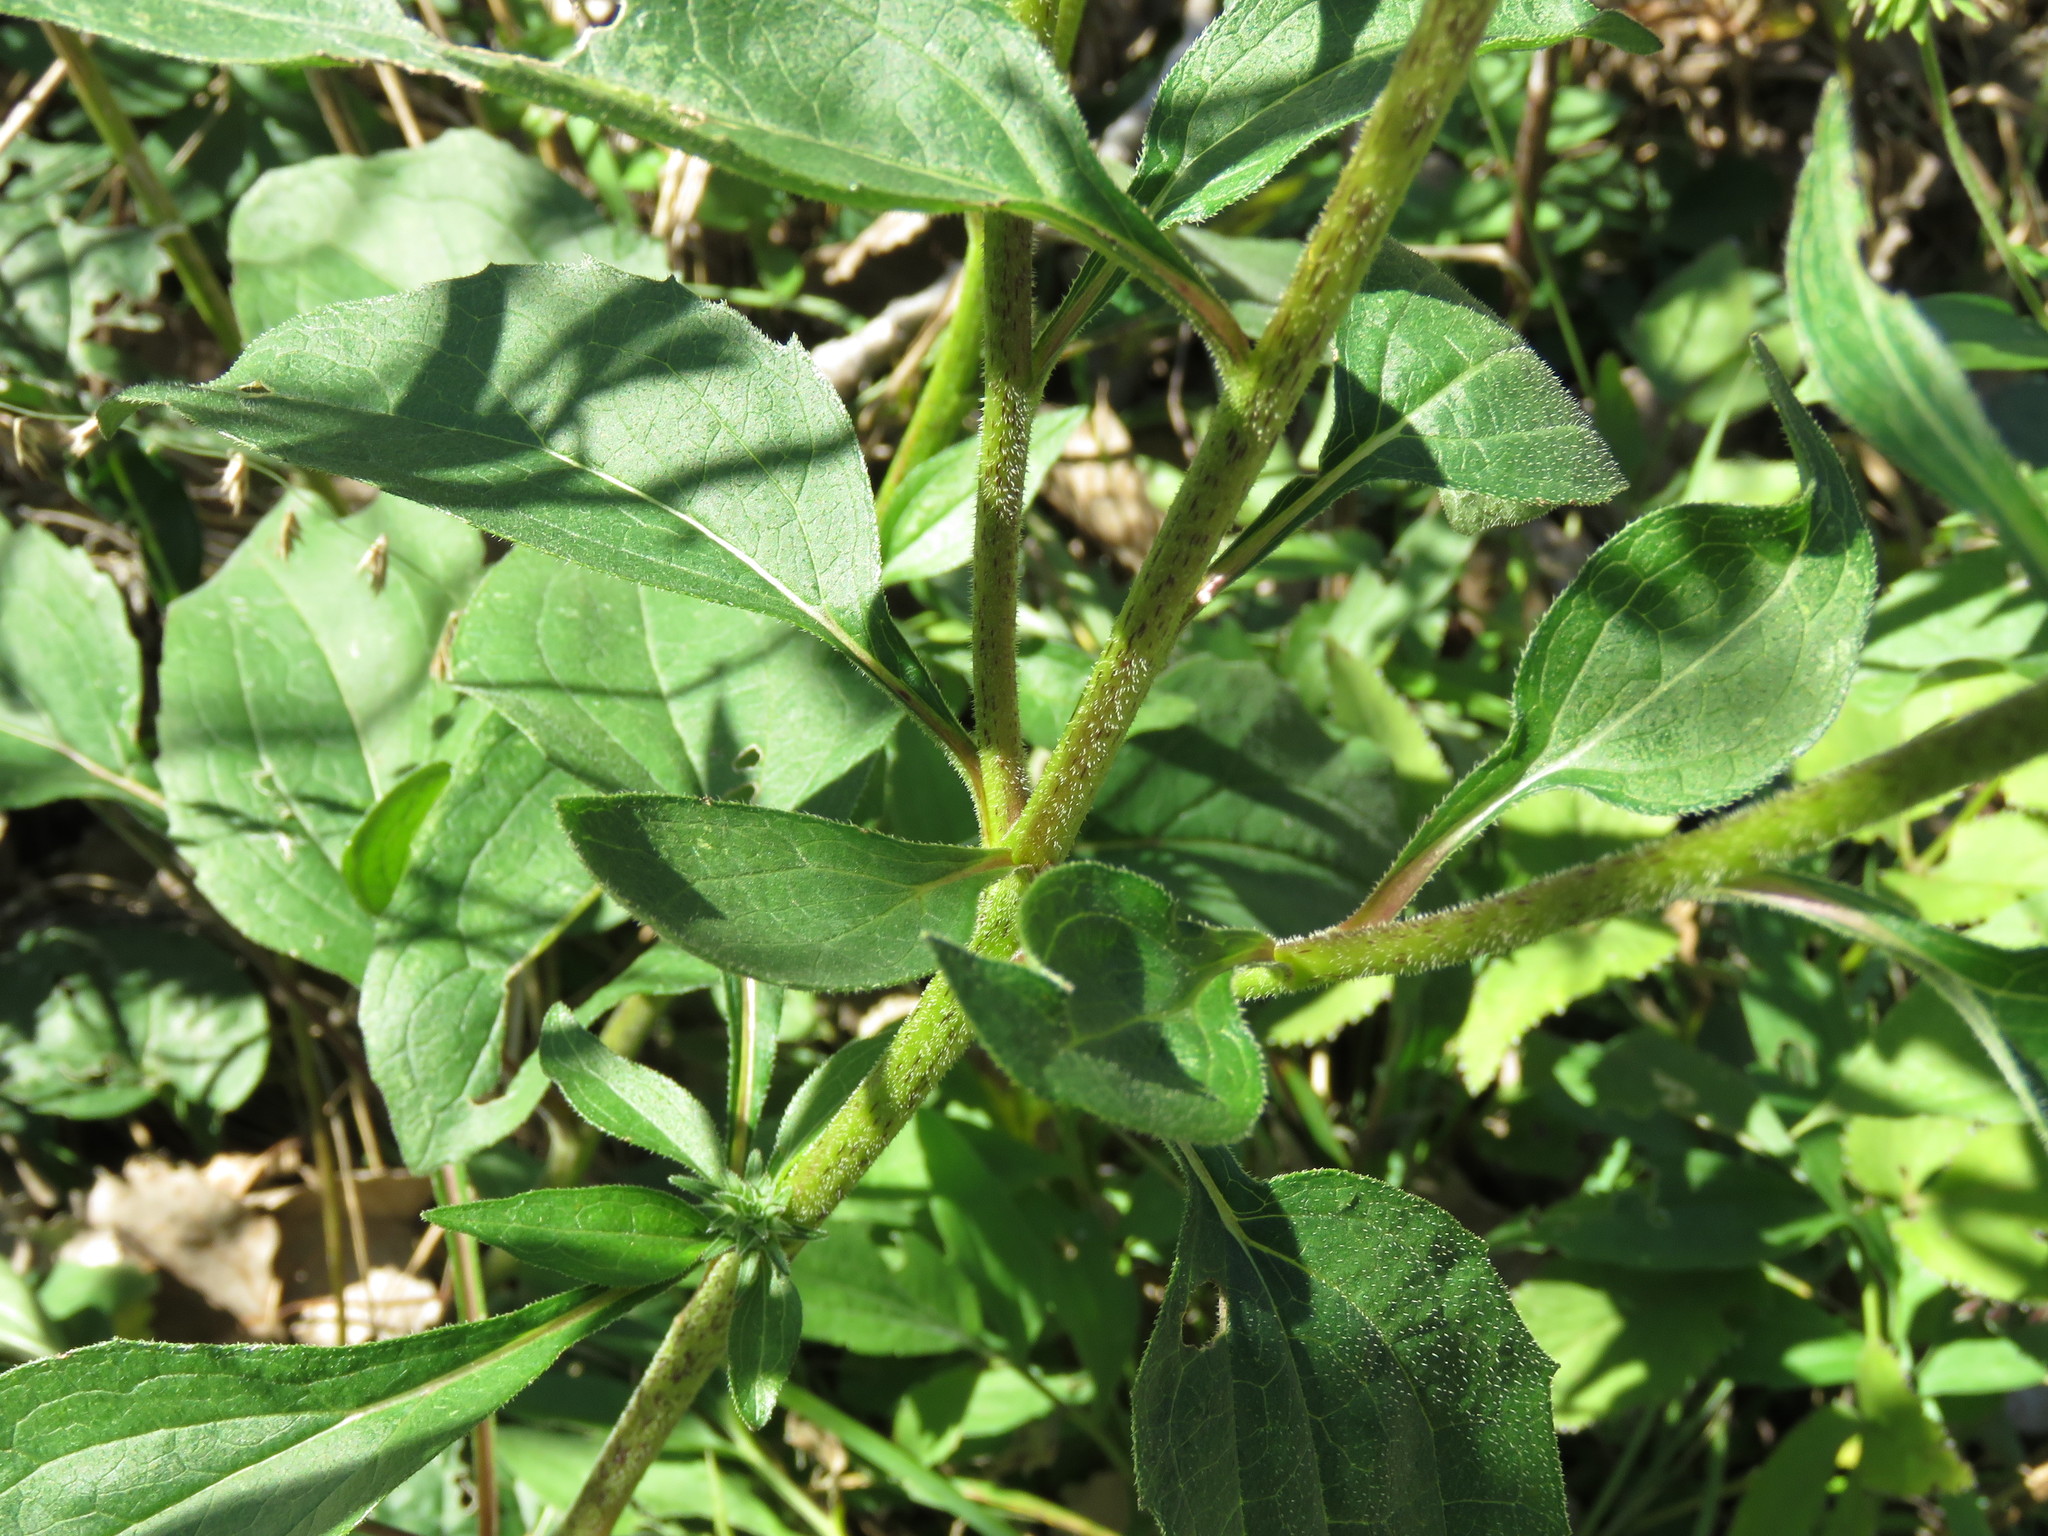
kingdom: Plantae
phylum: Tracheophyta
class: Magnoliopsida
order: Asterales
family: Asteraceae
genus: Echinacea
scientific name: Echinacea purpurea
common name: Broad-leaved purple coneflower
